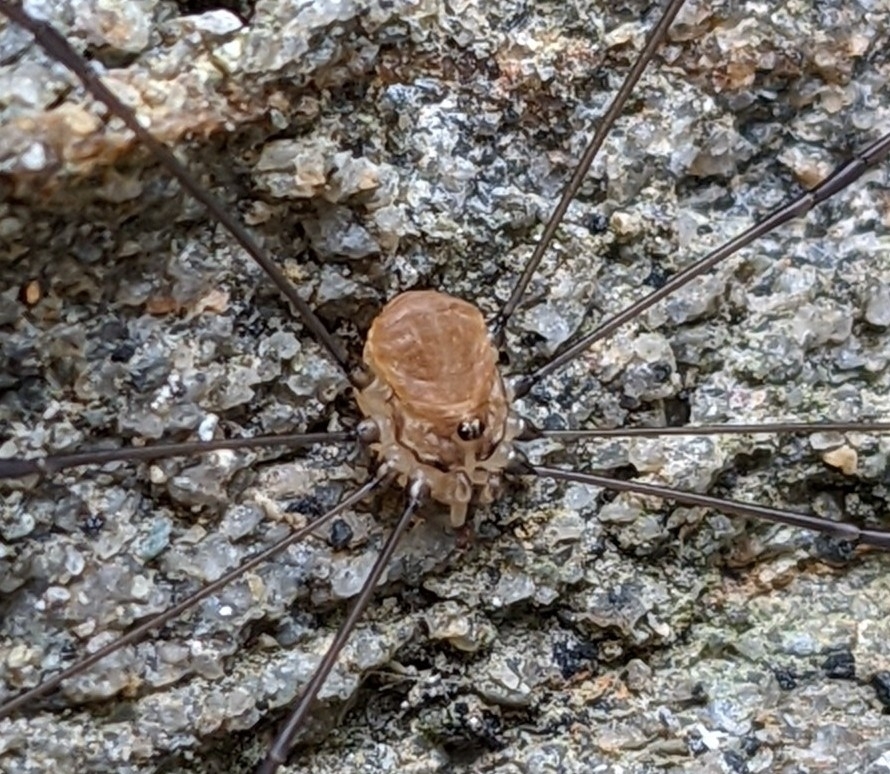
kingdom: Animalia
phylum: Arthropoda
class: Arachnida
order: Opiliones
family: Sclerosomatidae
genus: Leiobunum
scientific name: Leiobunum blackwalli
